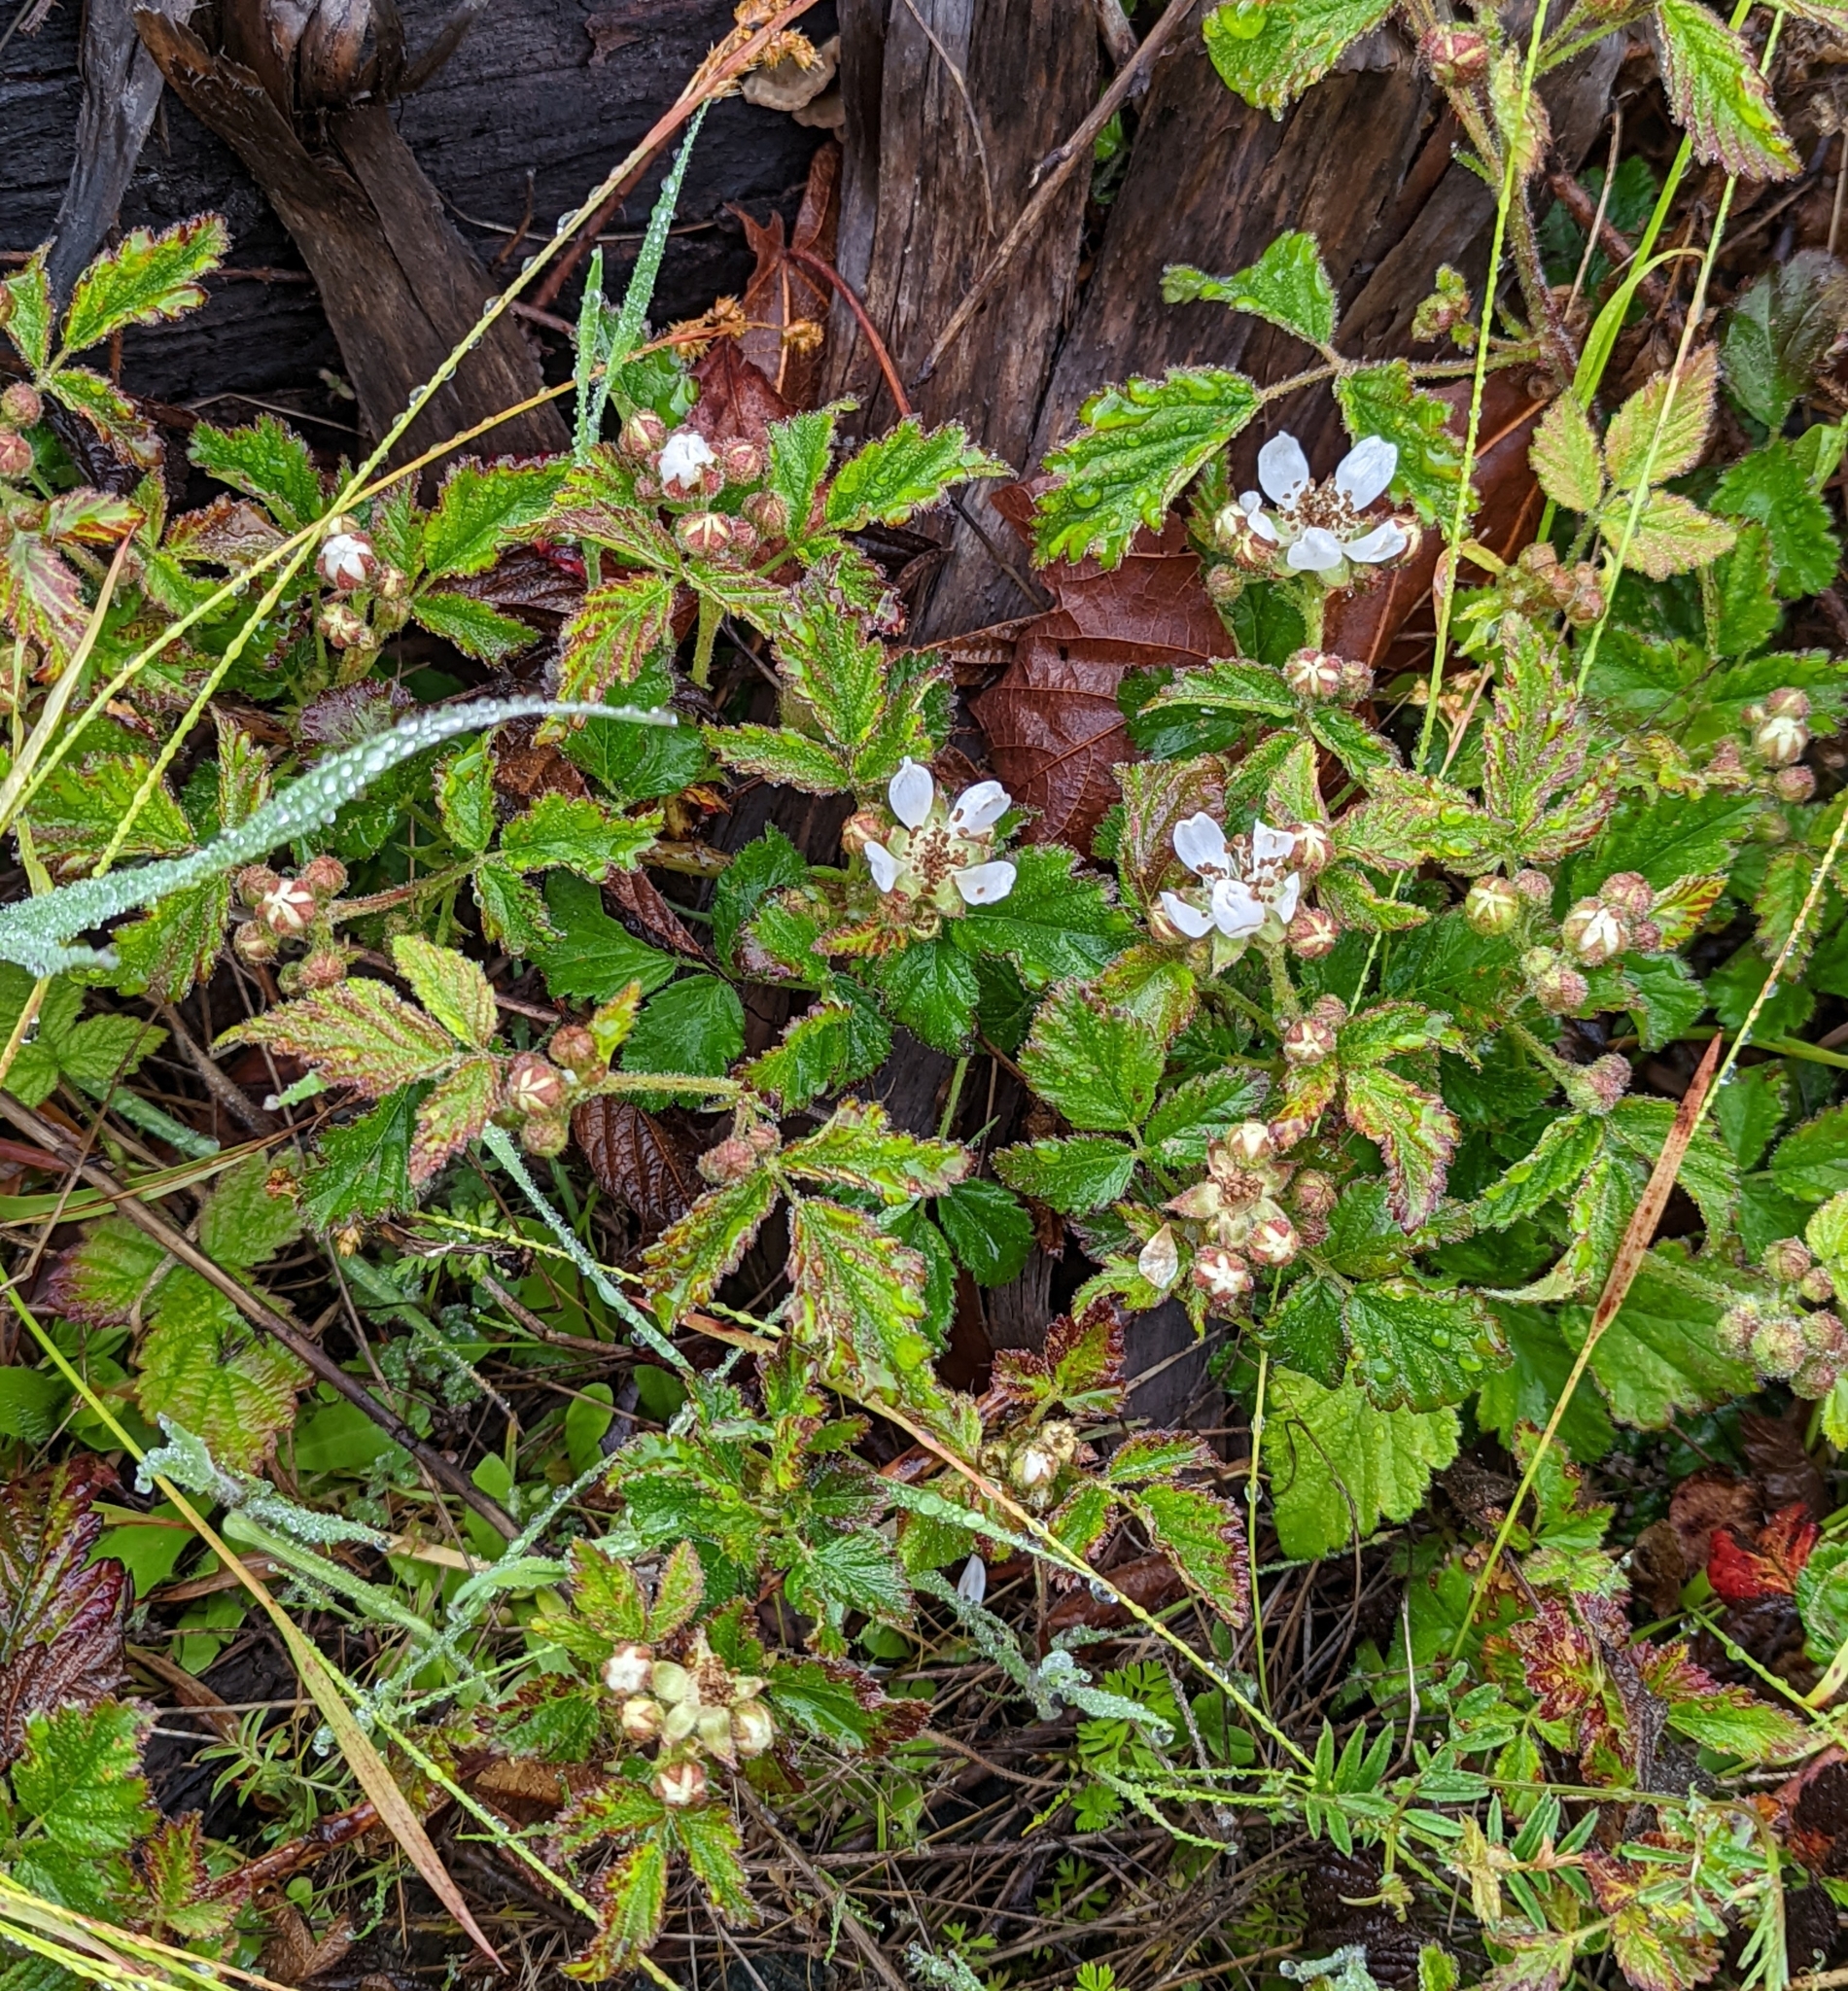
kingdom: Plantae
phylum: Tracheophyta
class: Magnoliopsida
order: Rosales
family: Rosaceae
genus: Rubus
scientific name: Rubus ursinus
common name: Pacific blackberry
